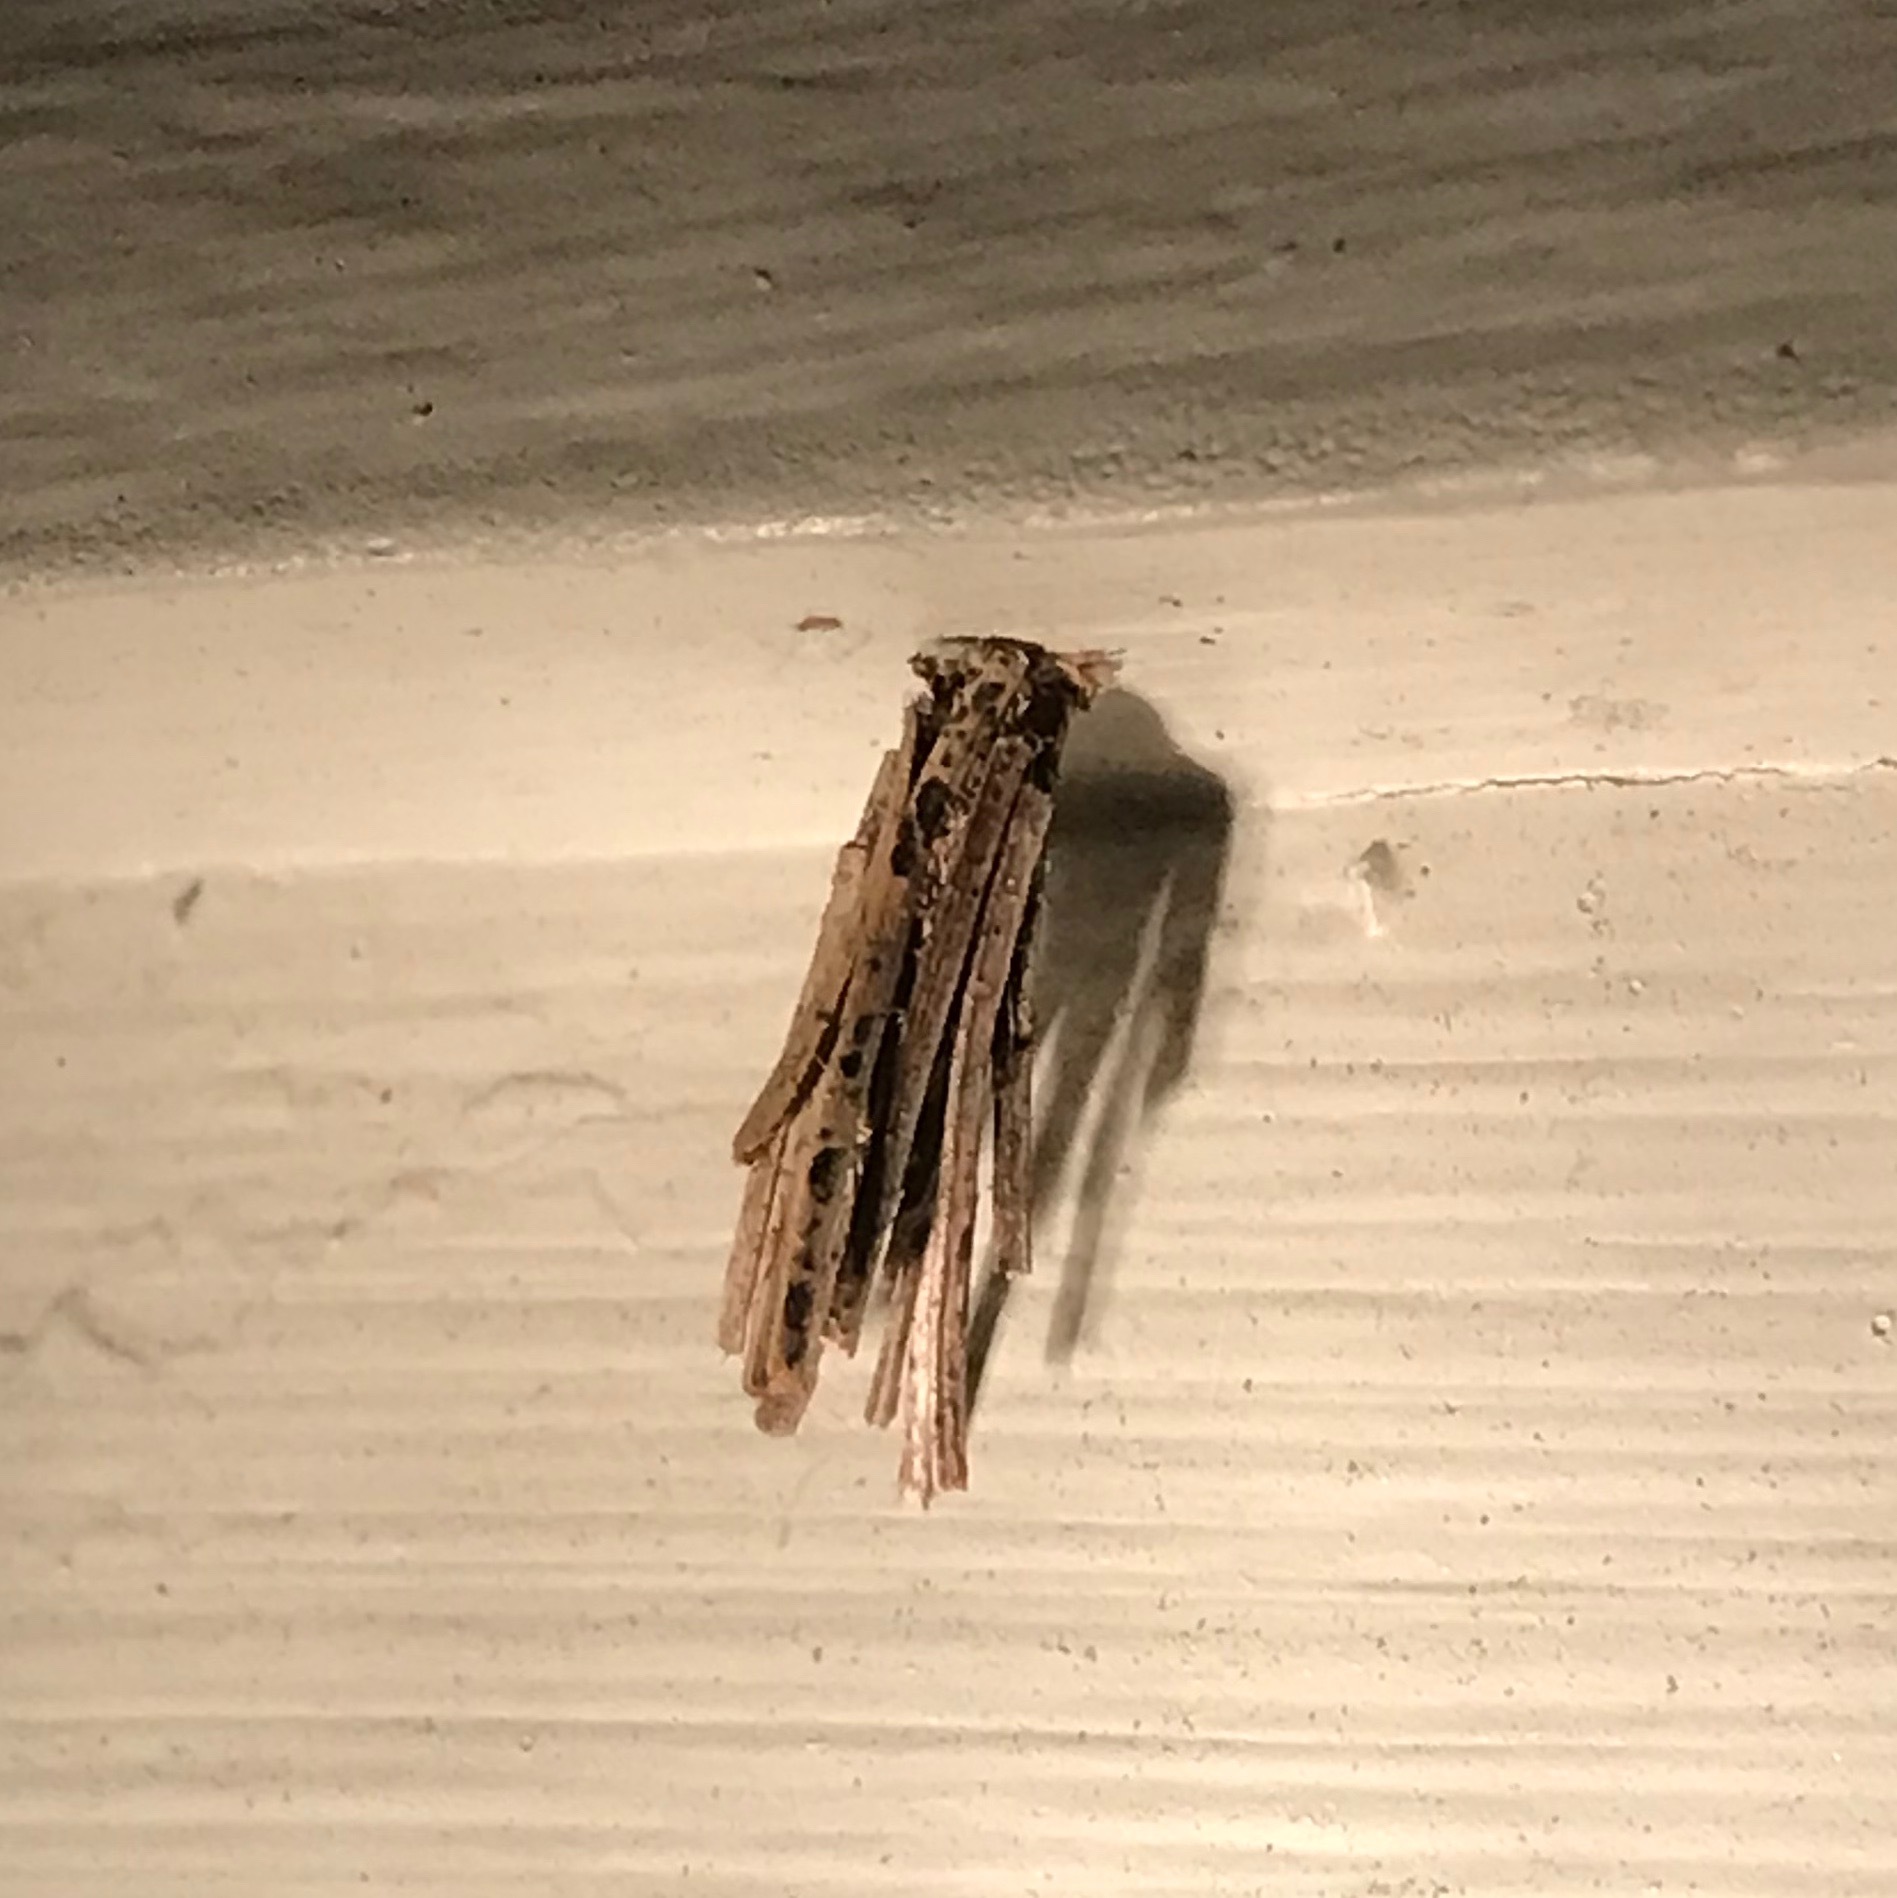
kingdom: Animalia
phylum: Arthropoda
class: Insecta
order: Lepidoptera
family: Psychidae
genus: Psyche
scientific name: Psyche casta
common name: Common sweep
